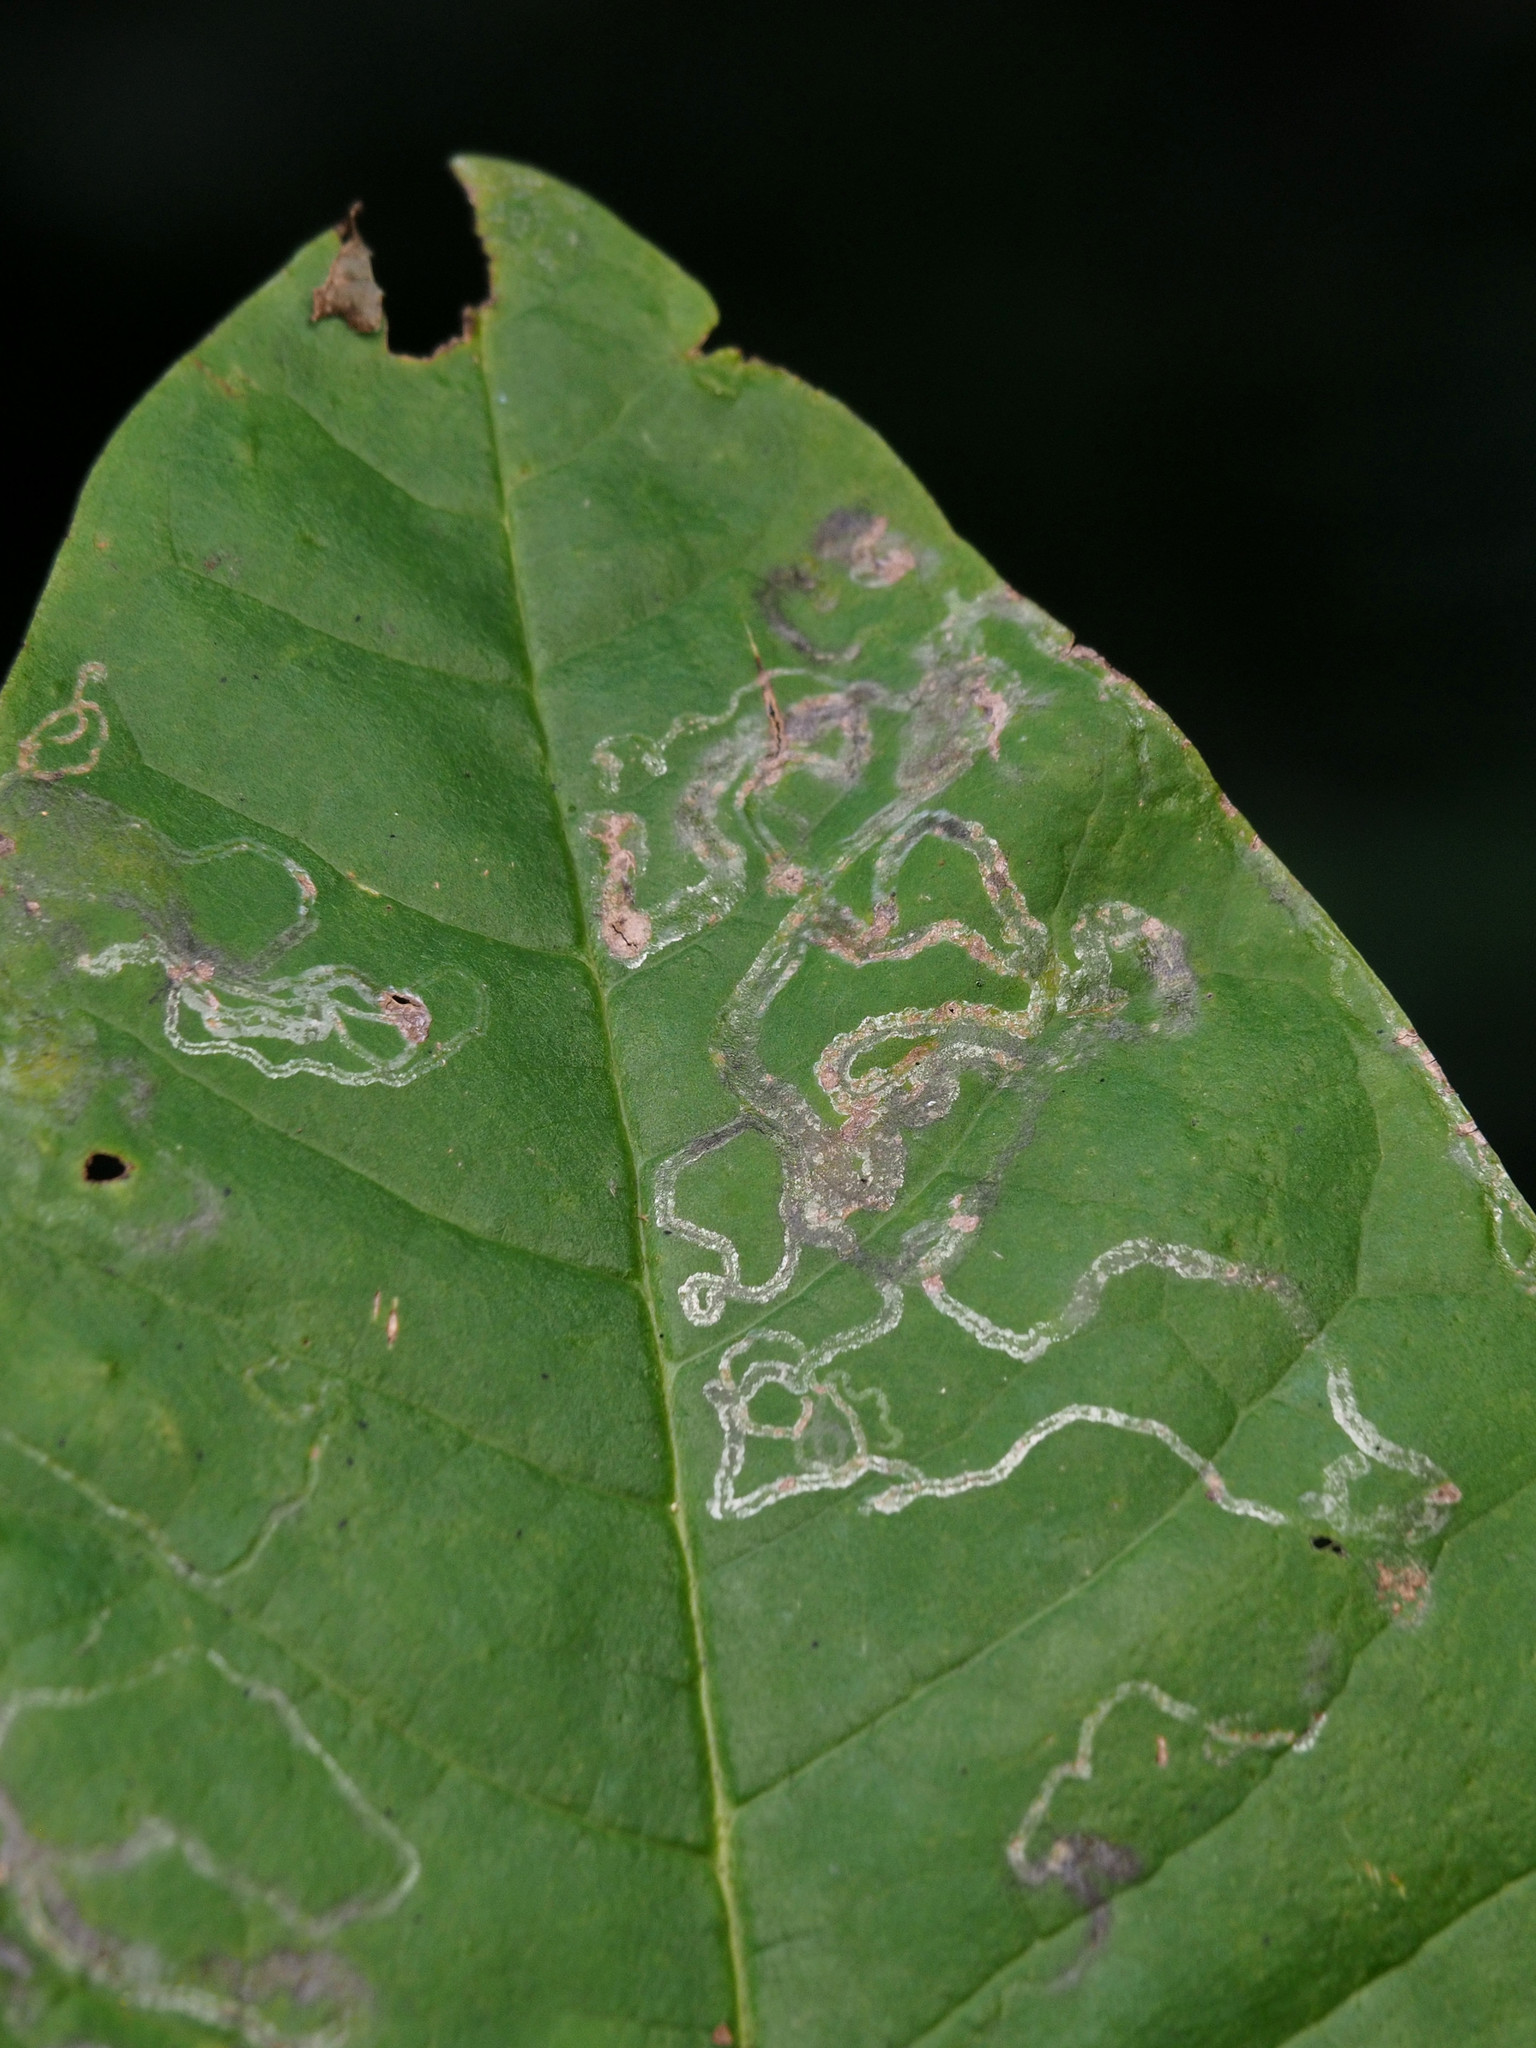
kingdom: Animalia
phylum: Arthropoda
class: Insecta
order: Lepidoptera
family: Gracillariidae
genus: Phyllocnistis
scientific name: Phyllocnistis liriodendronella
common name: Tulip tree leaf miner
